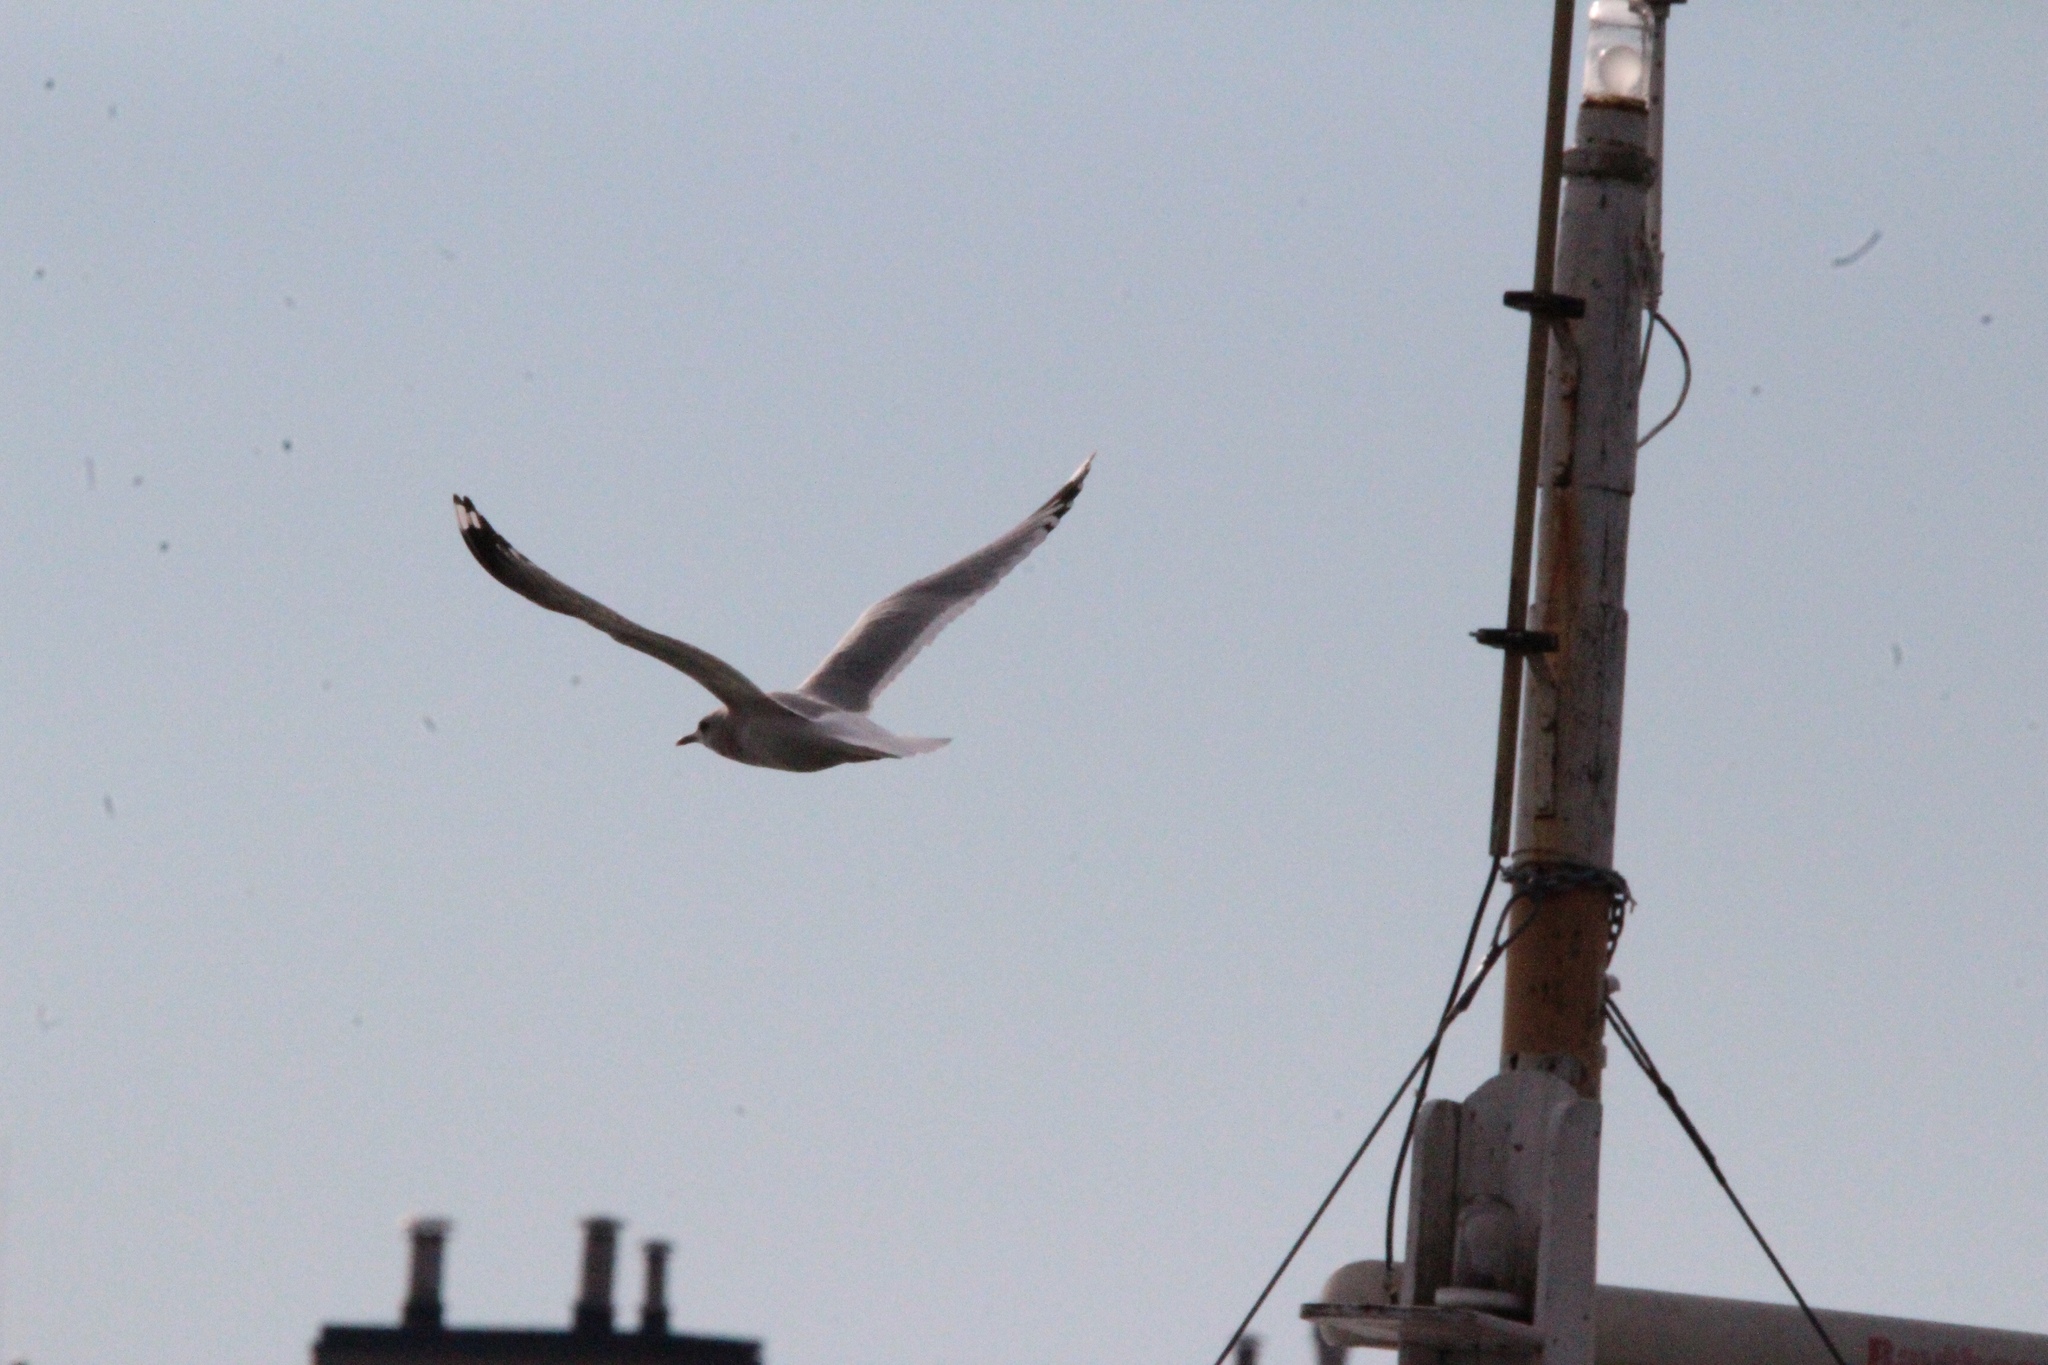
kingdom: Animalia
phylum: Chordata
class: Aves
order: Charadriiformes
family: Laridae
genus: Larus
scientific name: Larus brachyrhynchus
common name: Short-billed gull
